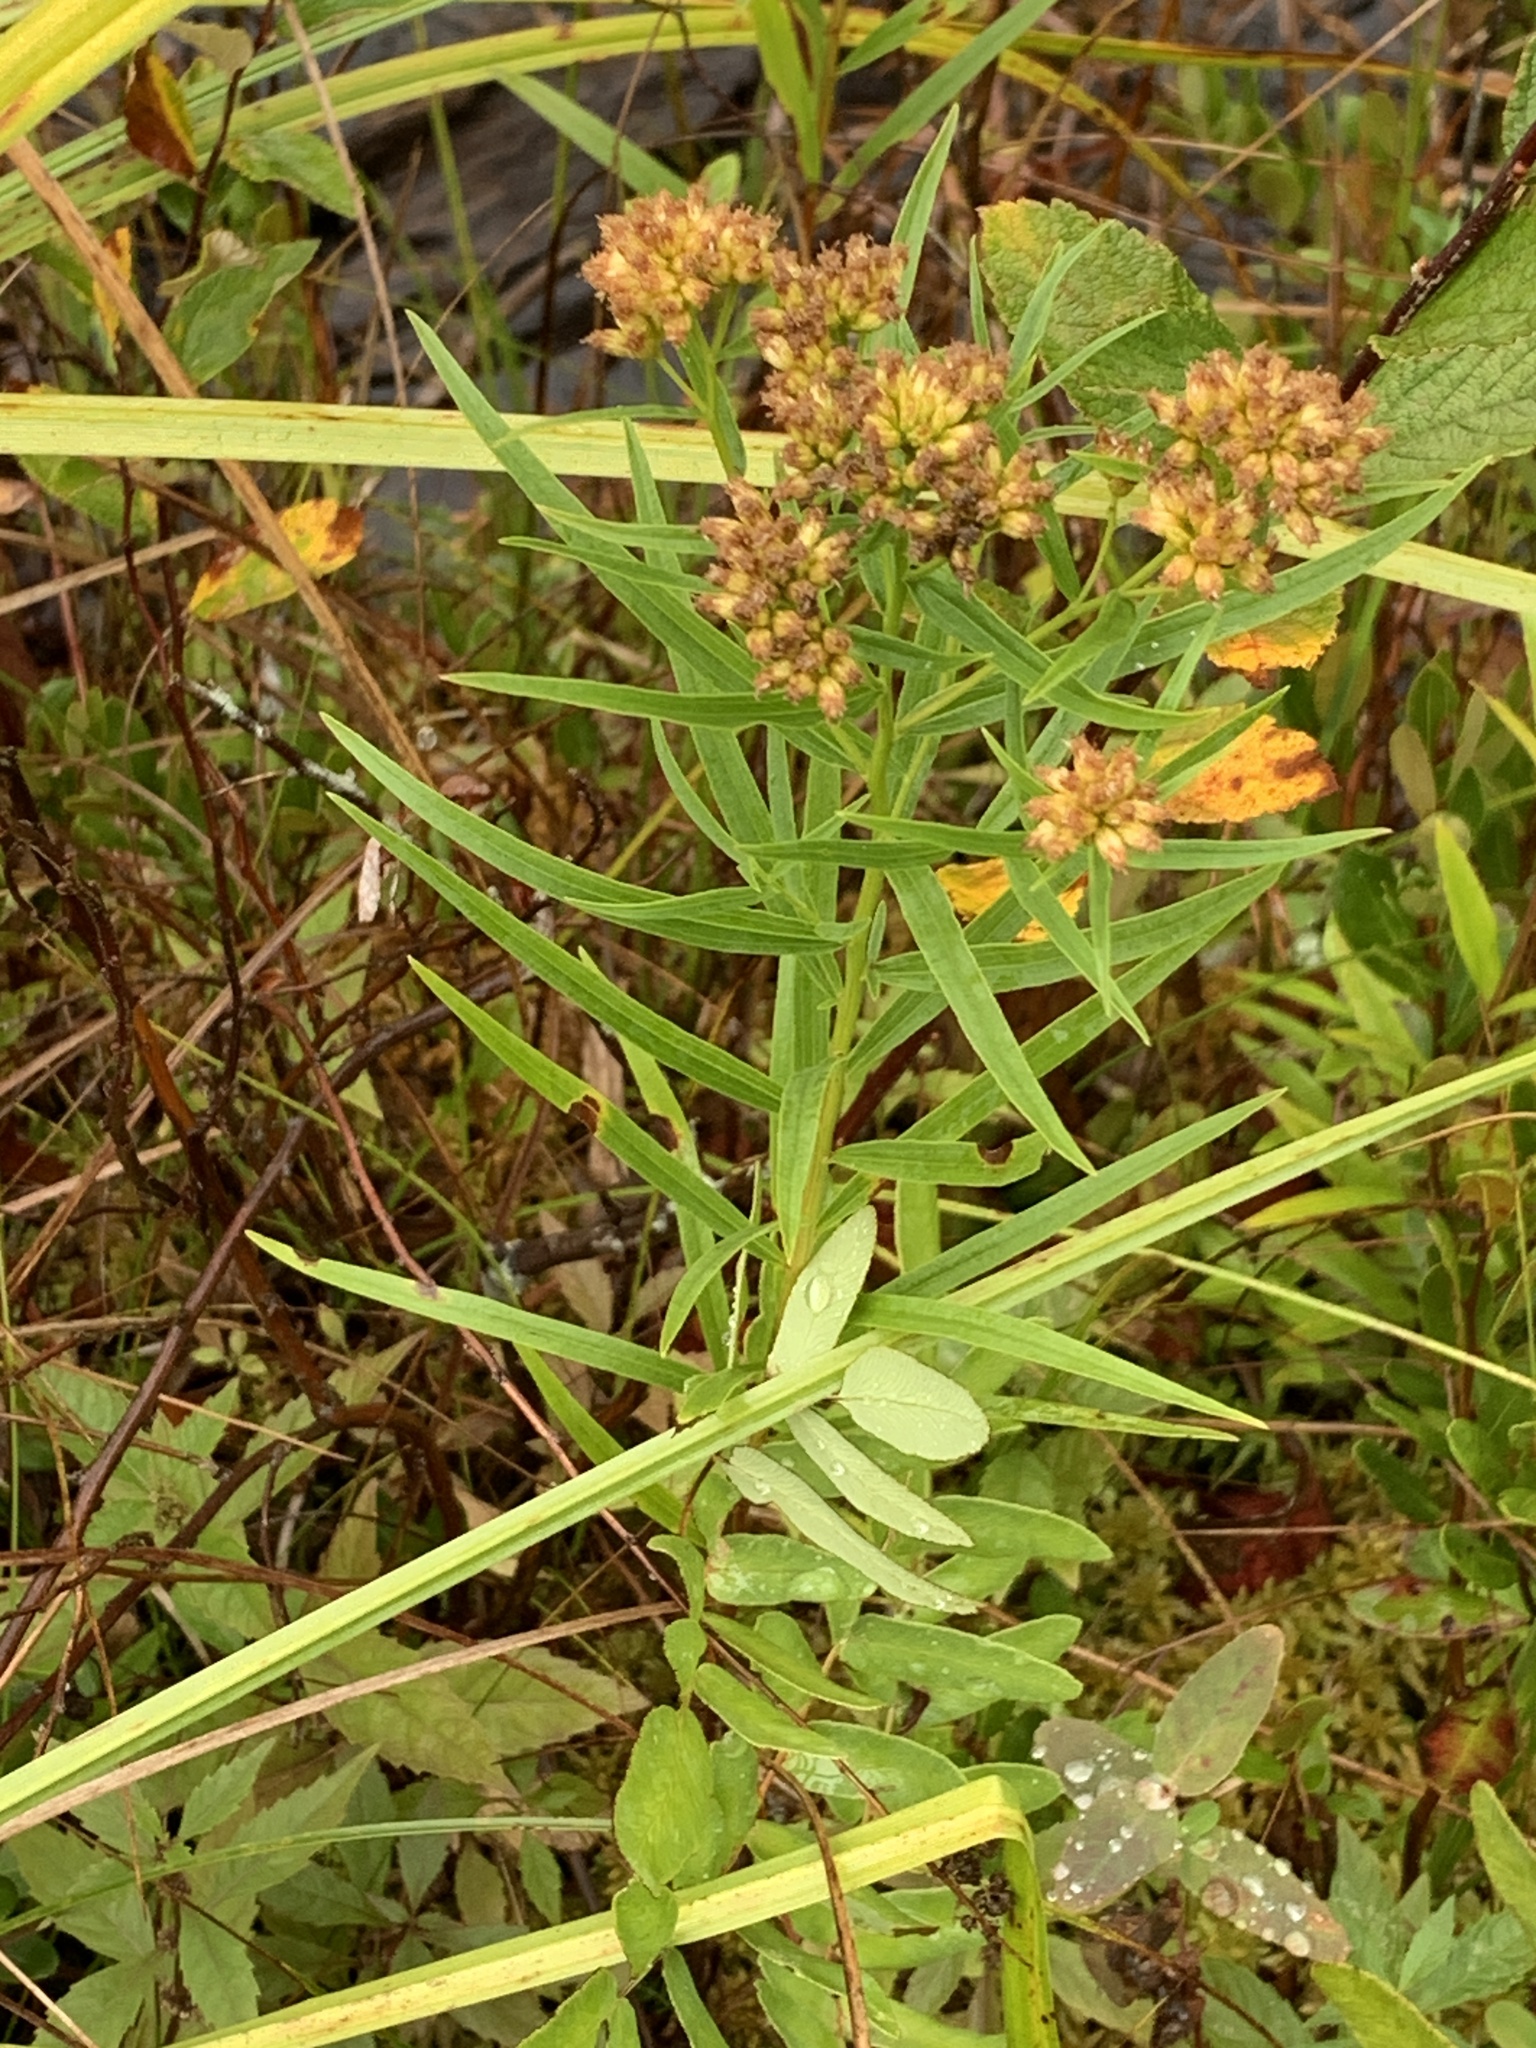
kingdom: Plantae
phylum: Tracheophyta
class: Magnoliopsida
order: Asterales
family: Asteraceae
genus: Euthamia
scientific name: Euthamia graminifolia
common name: Common goldentop
